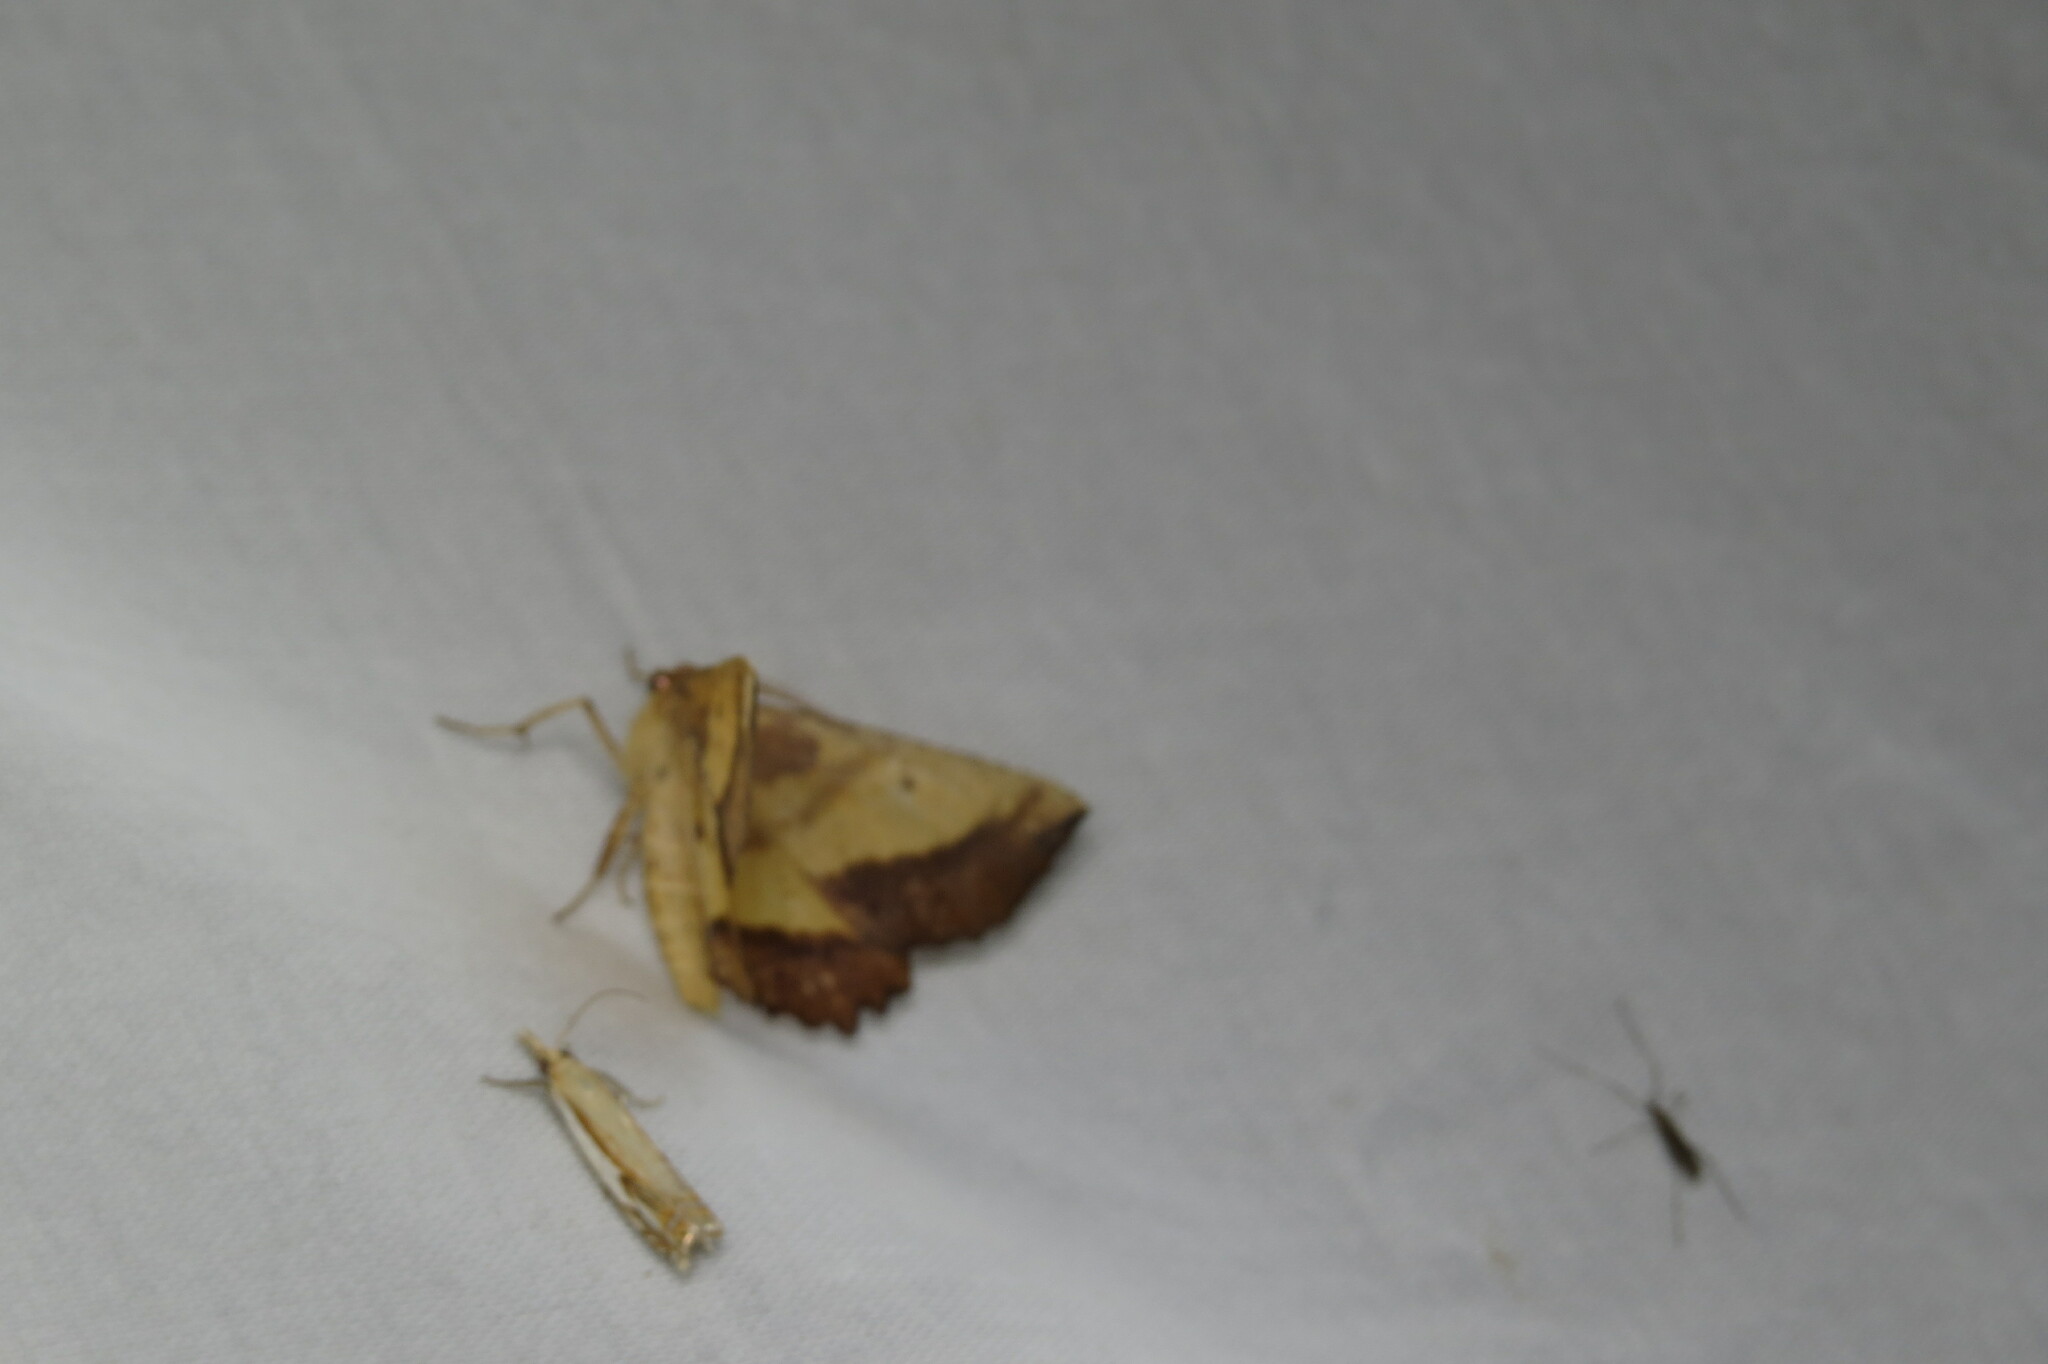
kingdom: Animalia
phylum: Arthropoda
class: Insecta
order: Lepidoptera
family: Geometridae
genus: Euchlaena
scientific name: Euchlaena serrata
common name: Saw wing
